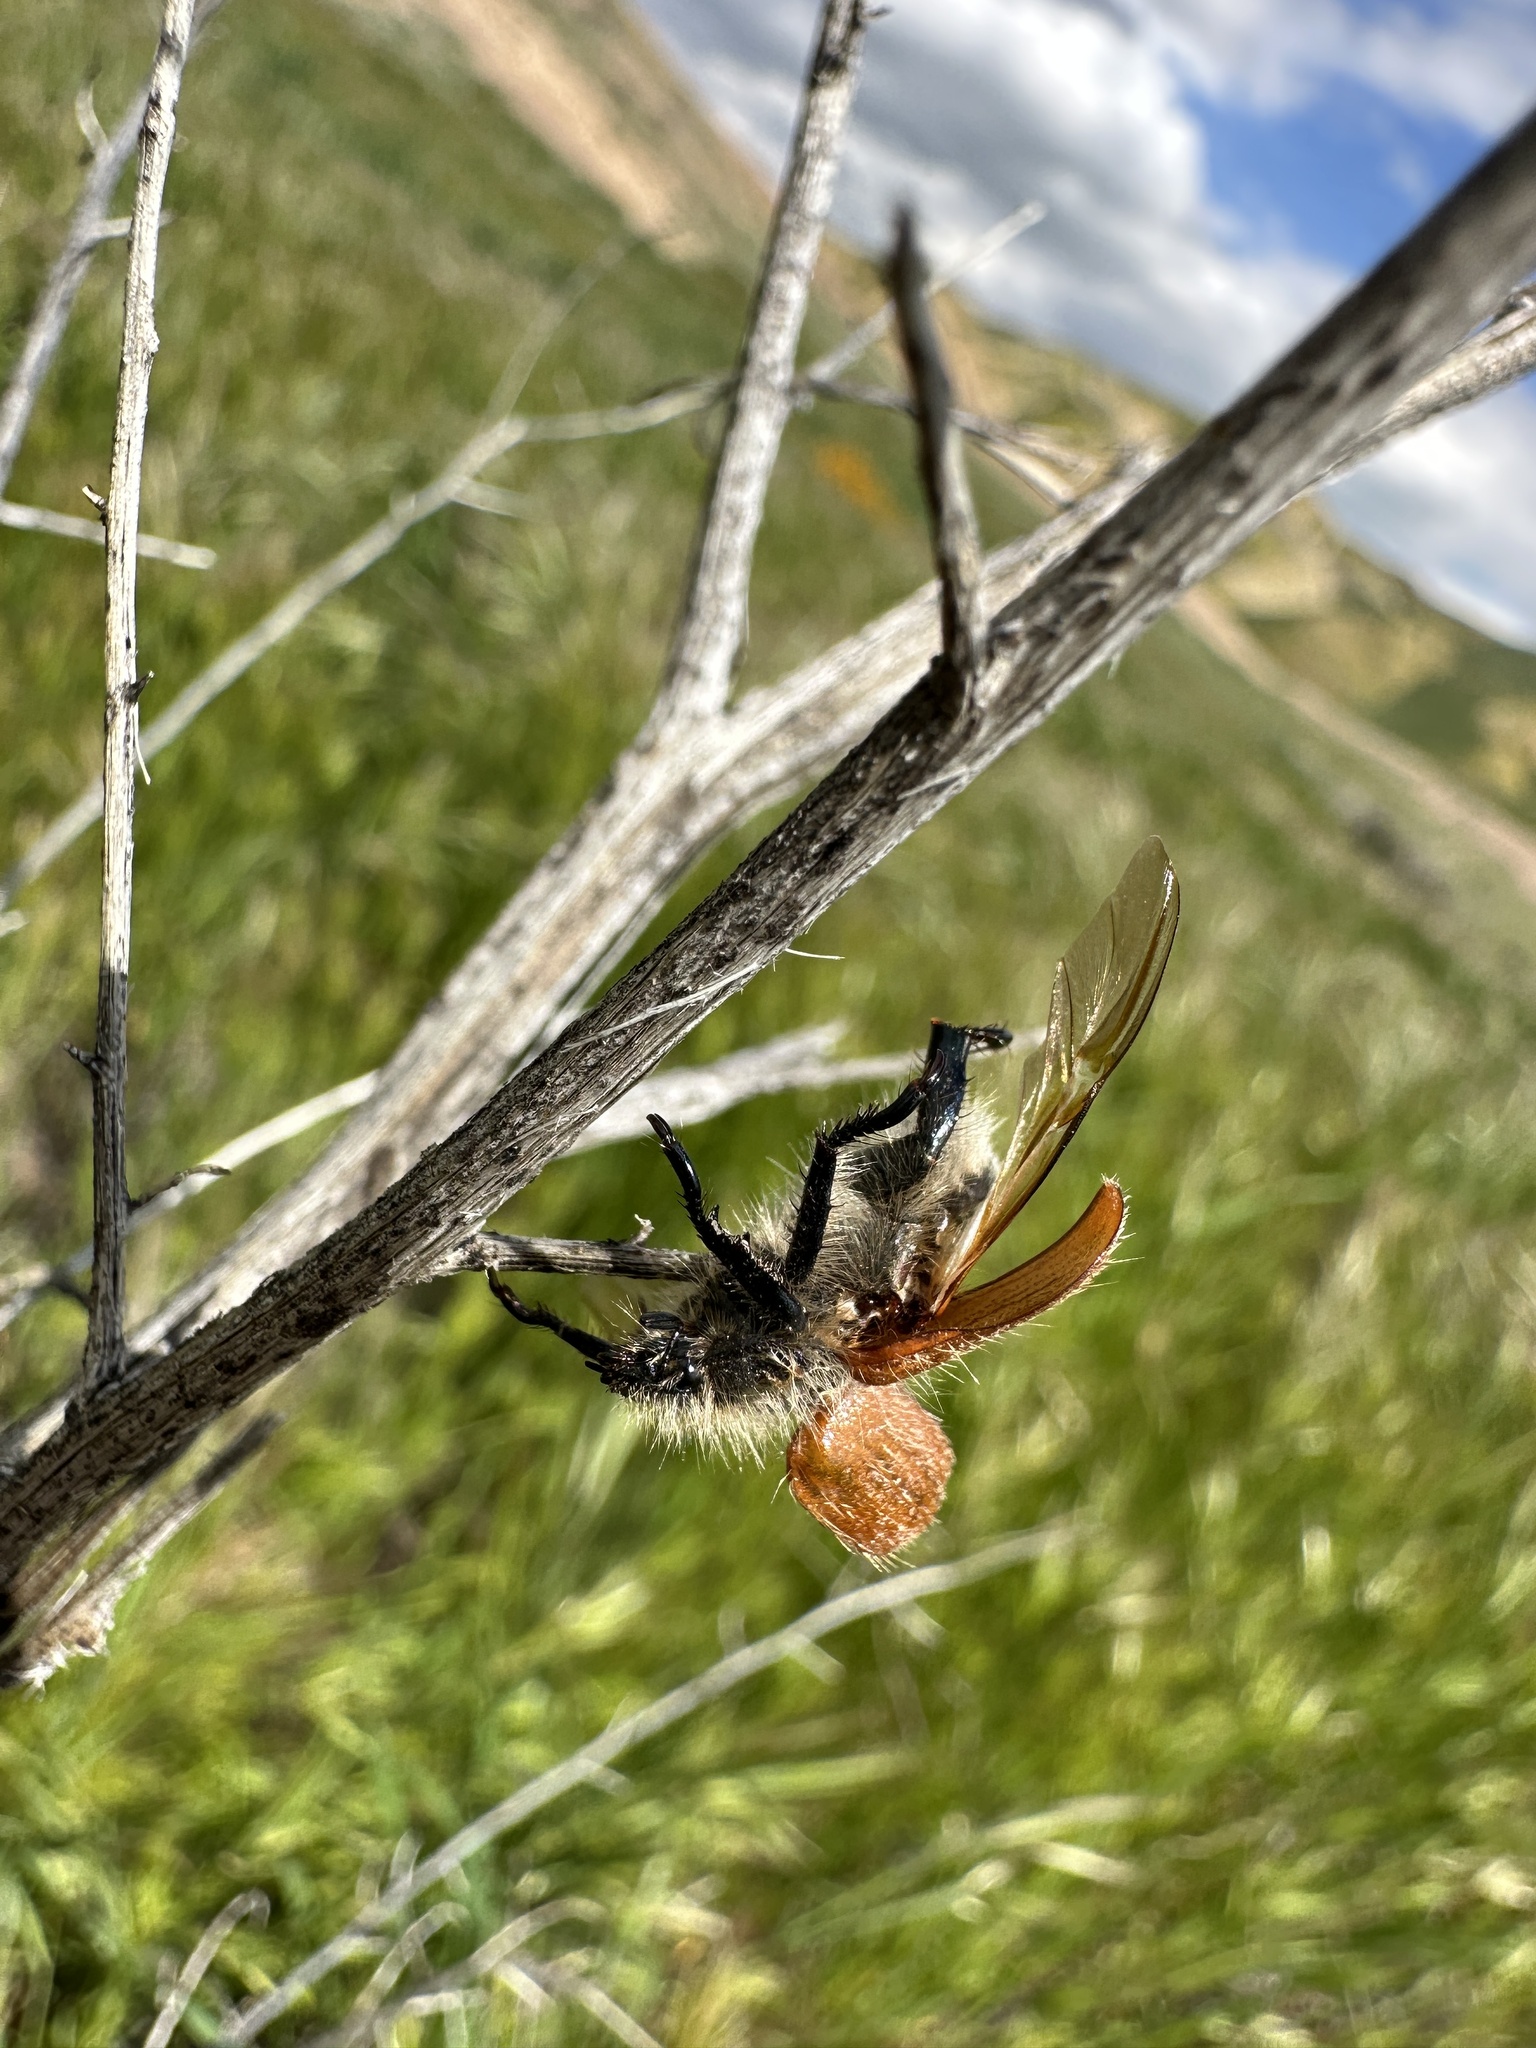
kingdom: Animalia
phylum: Arthropoda
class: Insecta
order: Coleoptera
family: Scarabaeidae
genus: Paracotalpa
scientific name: Paracotalpa ursina
